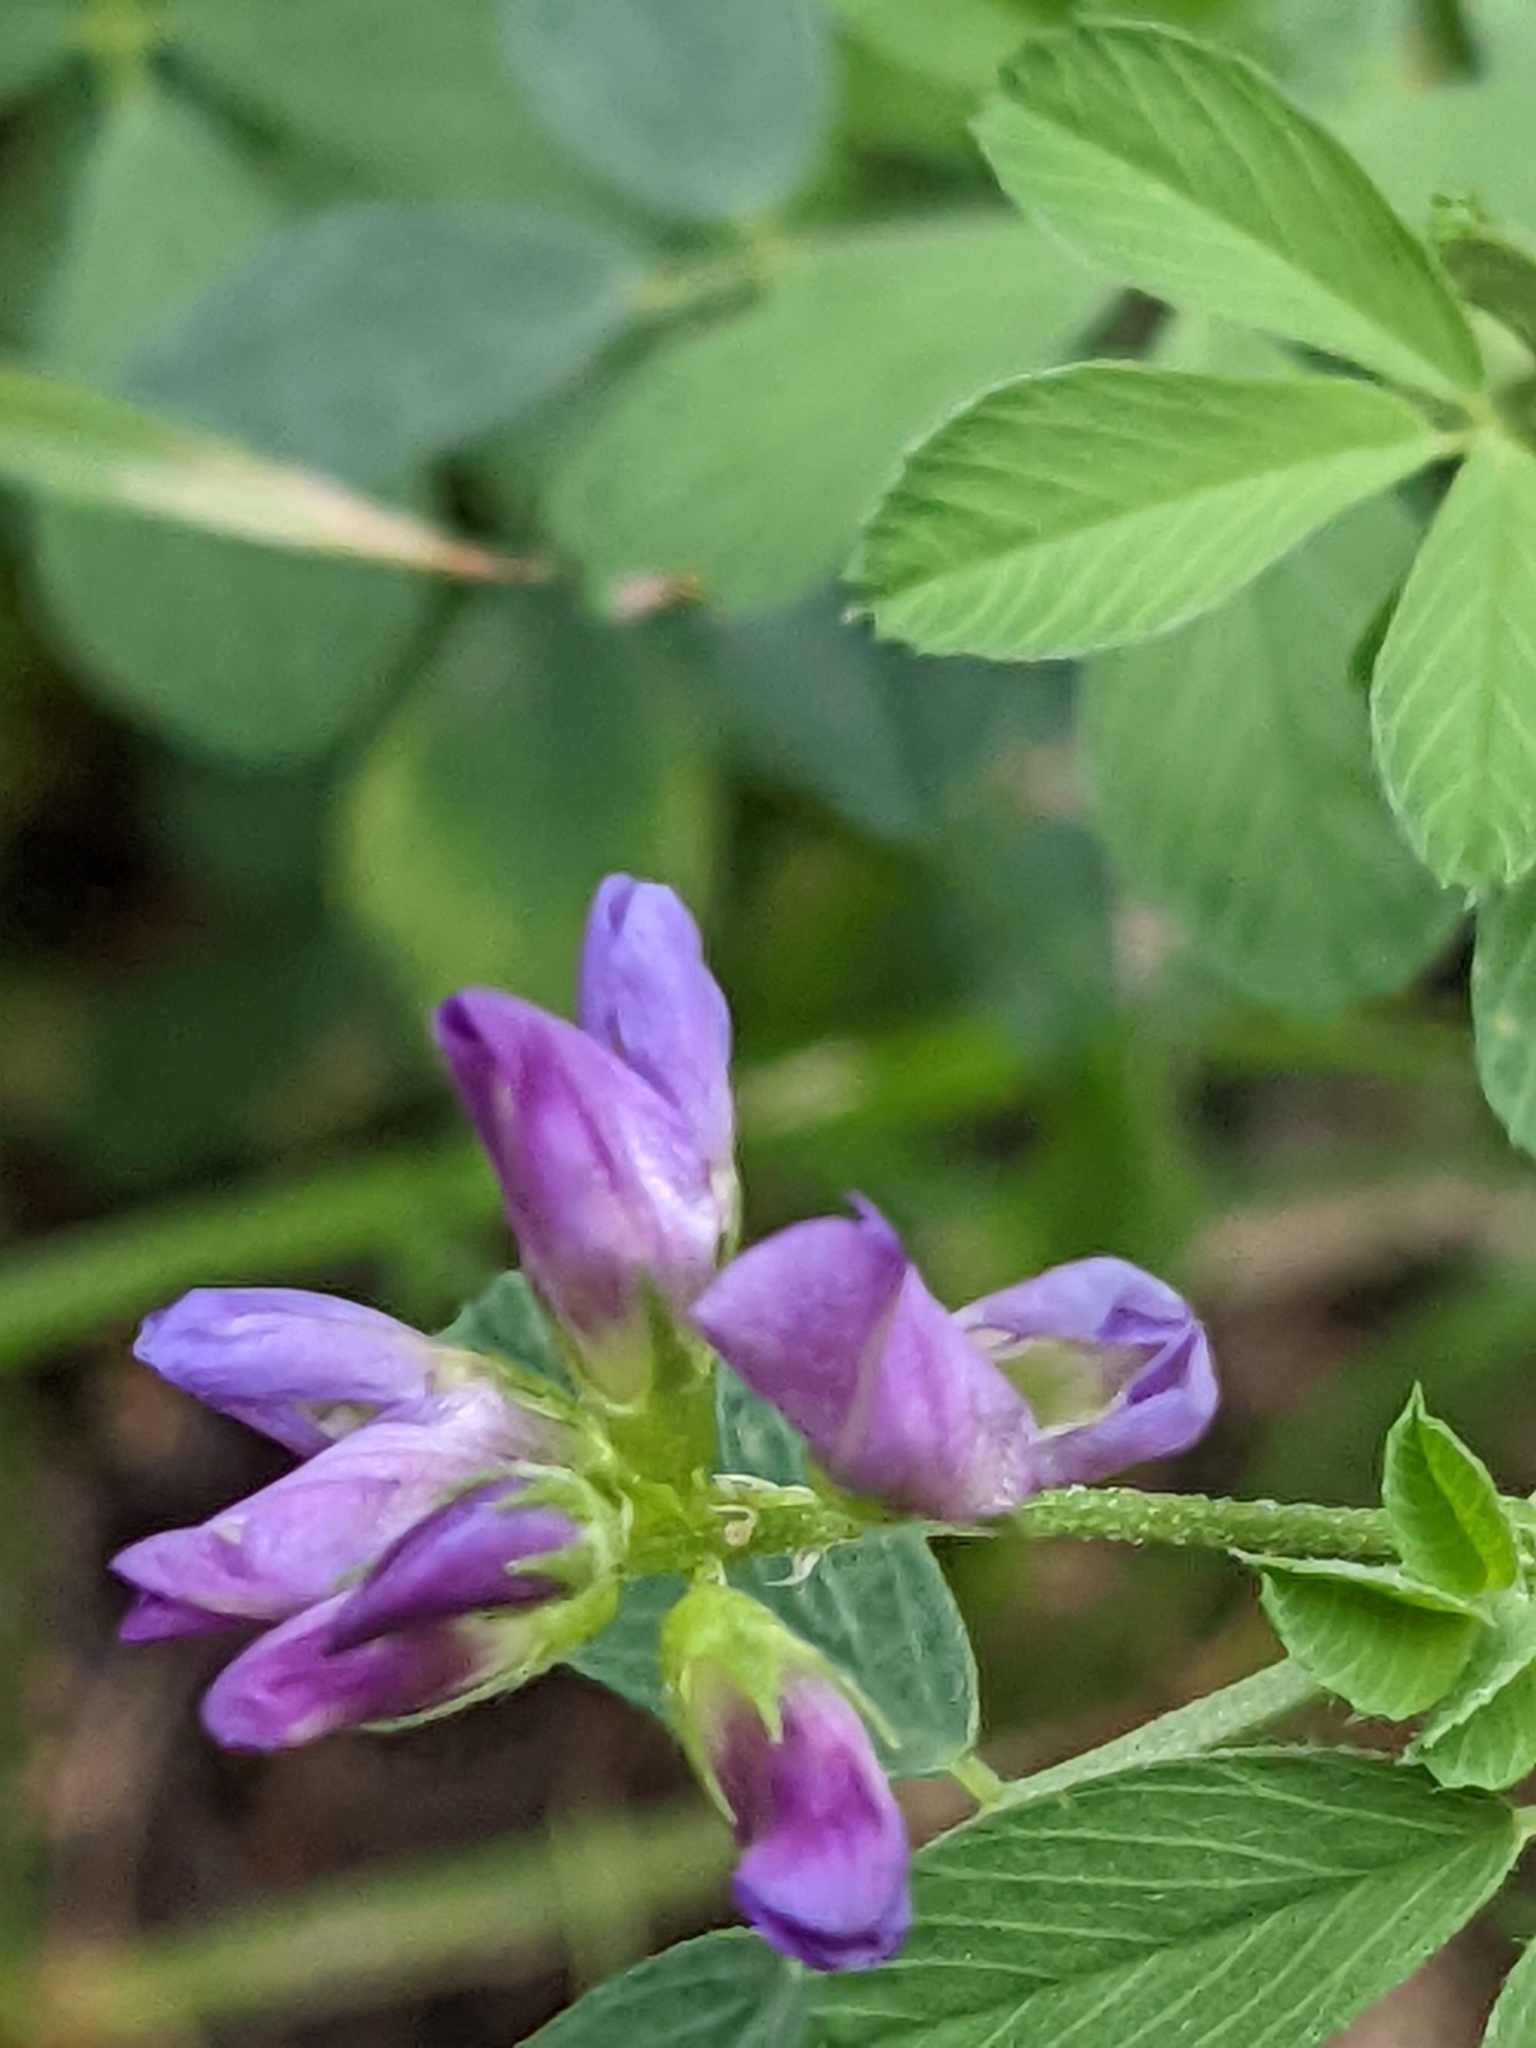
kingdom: Plantae
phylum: Tracheophyta
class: Magnoliopsida
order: Fabales
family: Fabaceae
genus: Medicago
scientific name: Medicago sativa
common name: Alfalfa
